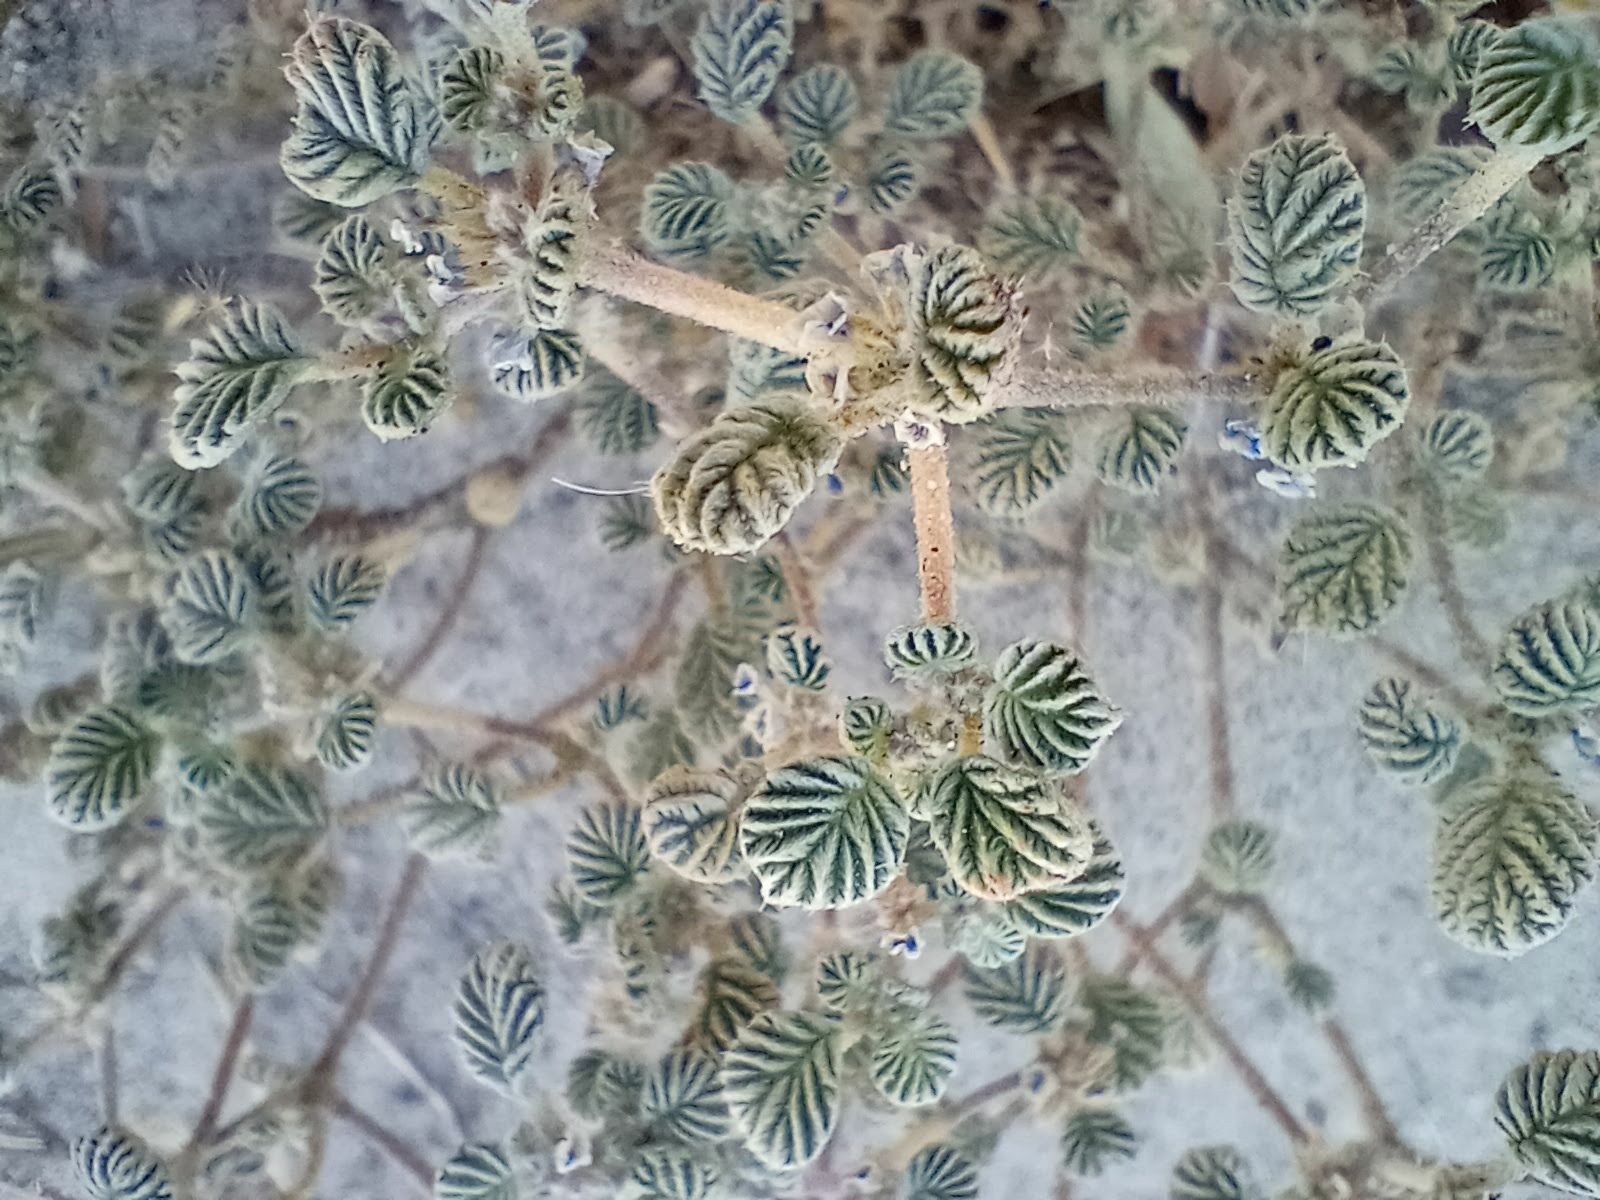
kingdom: Plantae
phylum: Tracheophyta
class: Magnoliopsida
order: Boraginales
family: Ehretiaceae
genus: Tiquilia
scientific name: Tiquilia plicata
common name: Fan-leaf tiquilia
